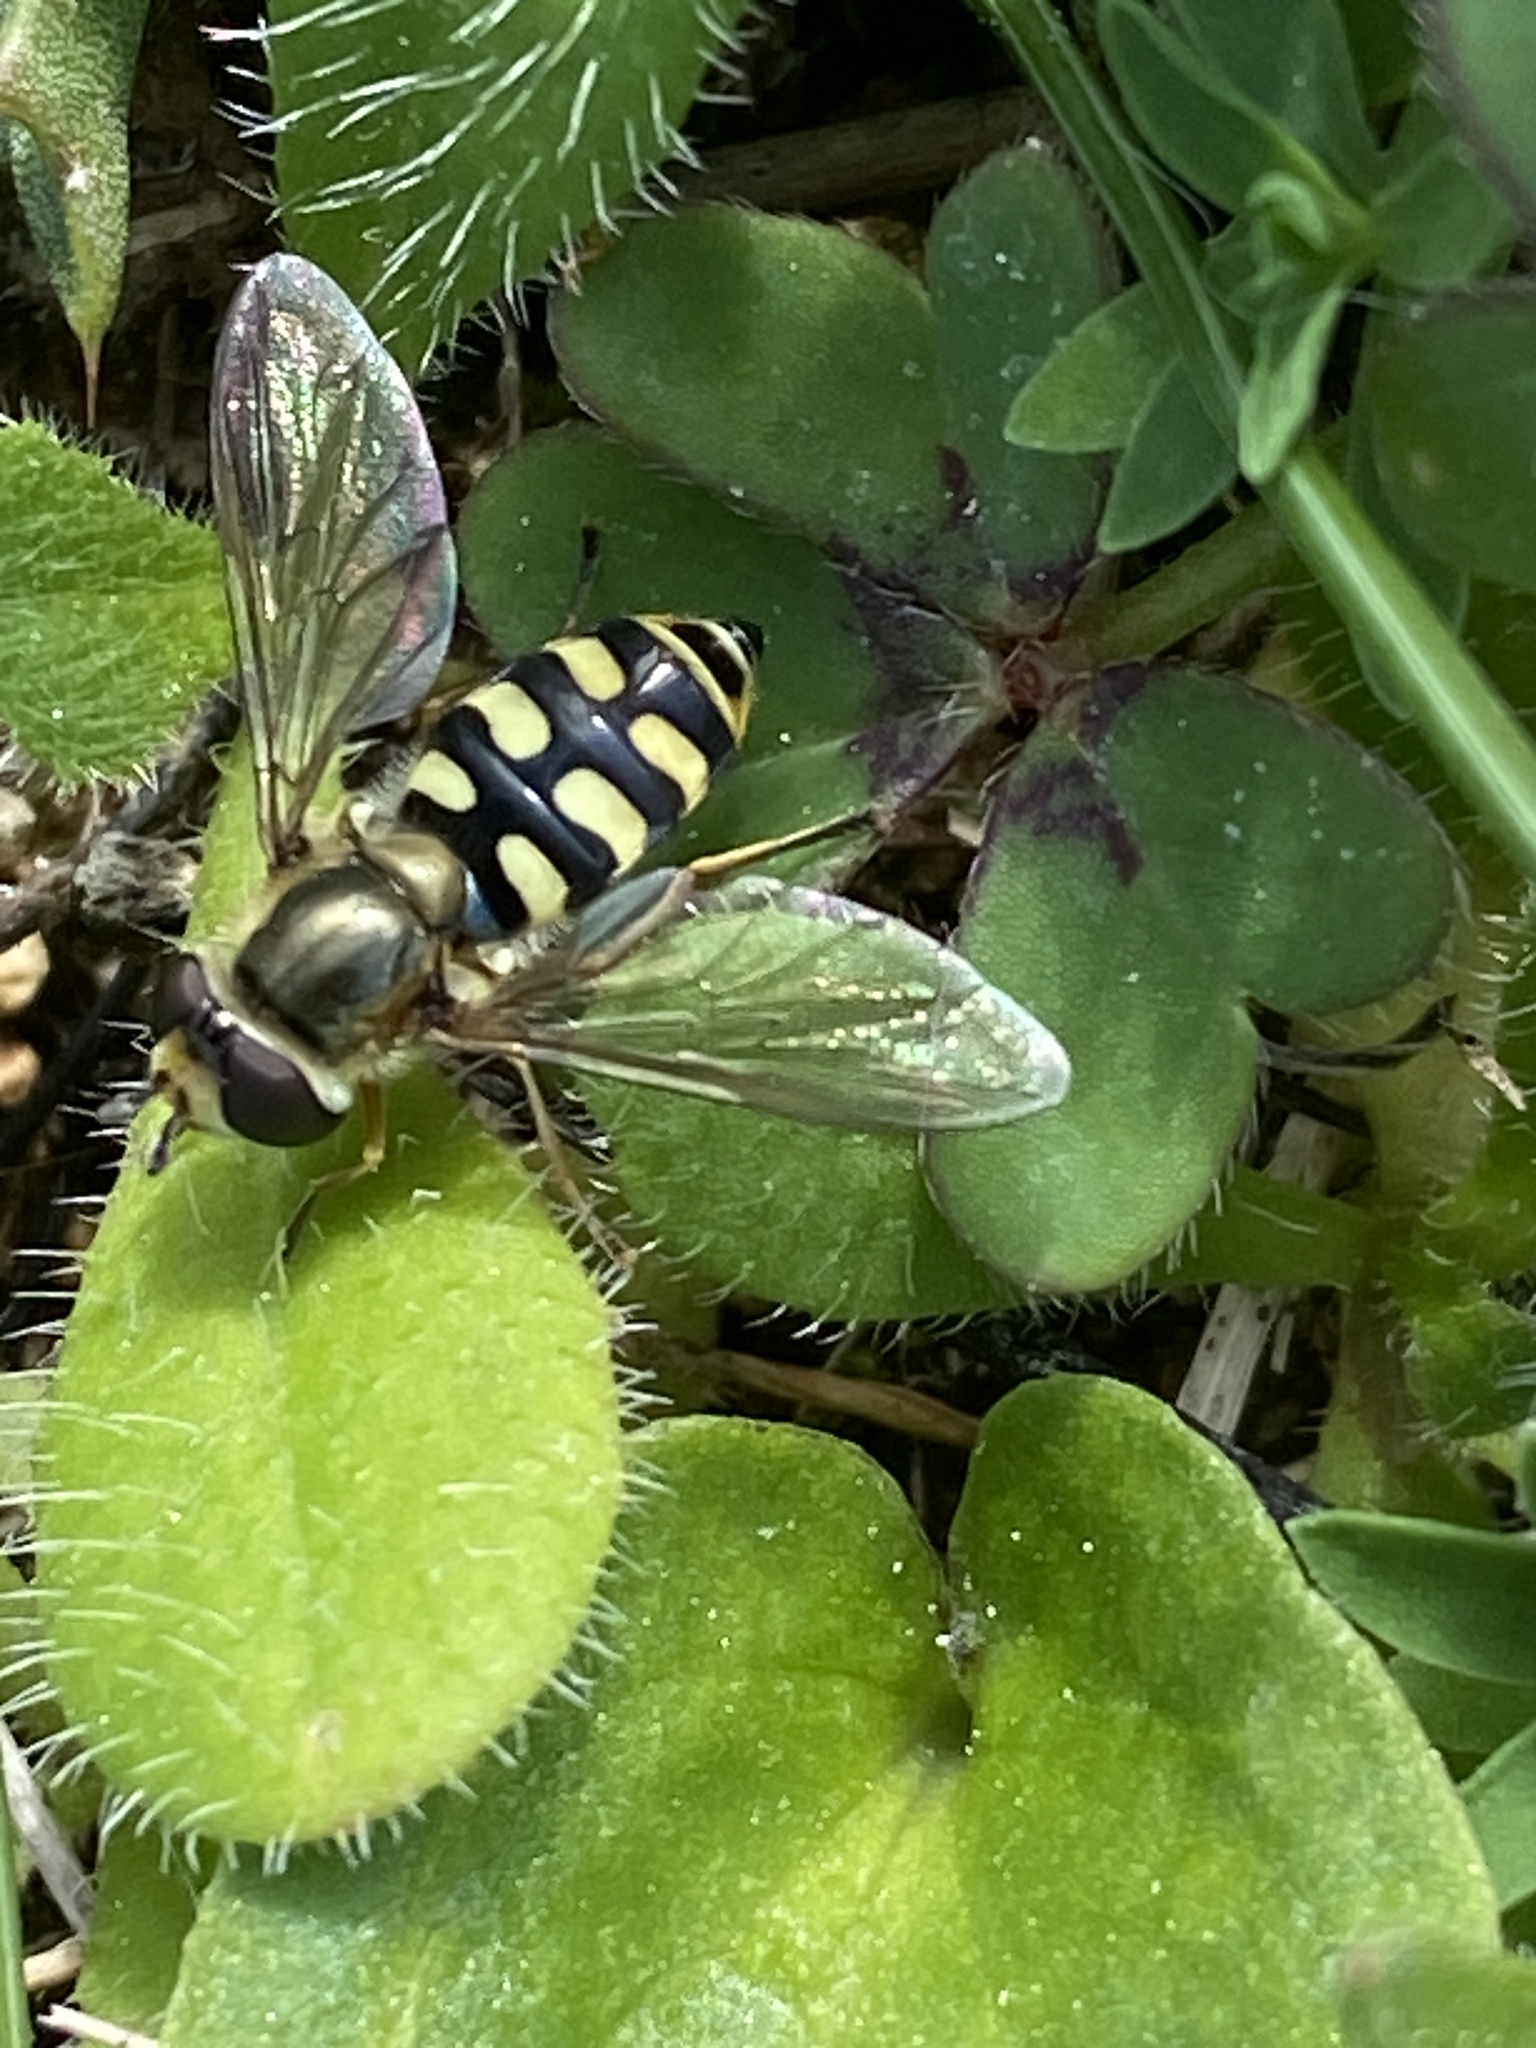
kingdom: Animalia
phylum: Arthropoda
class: Insecta
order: Diptera
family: Syrphidae
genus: Eupeodes
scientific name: Eupeodes corollae
